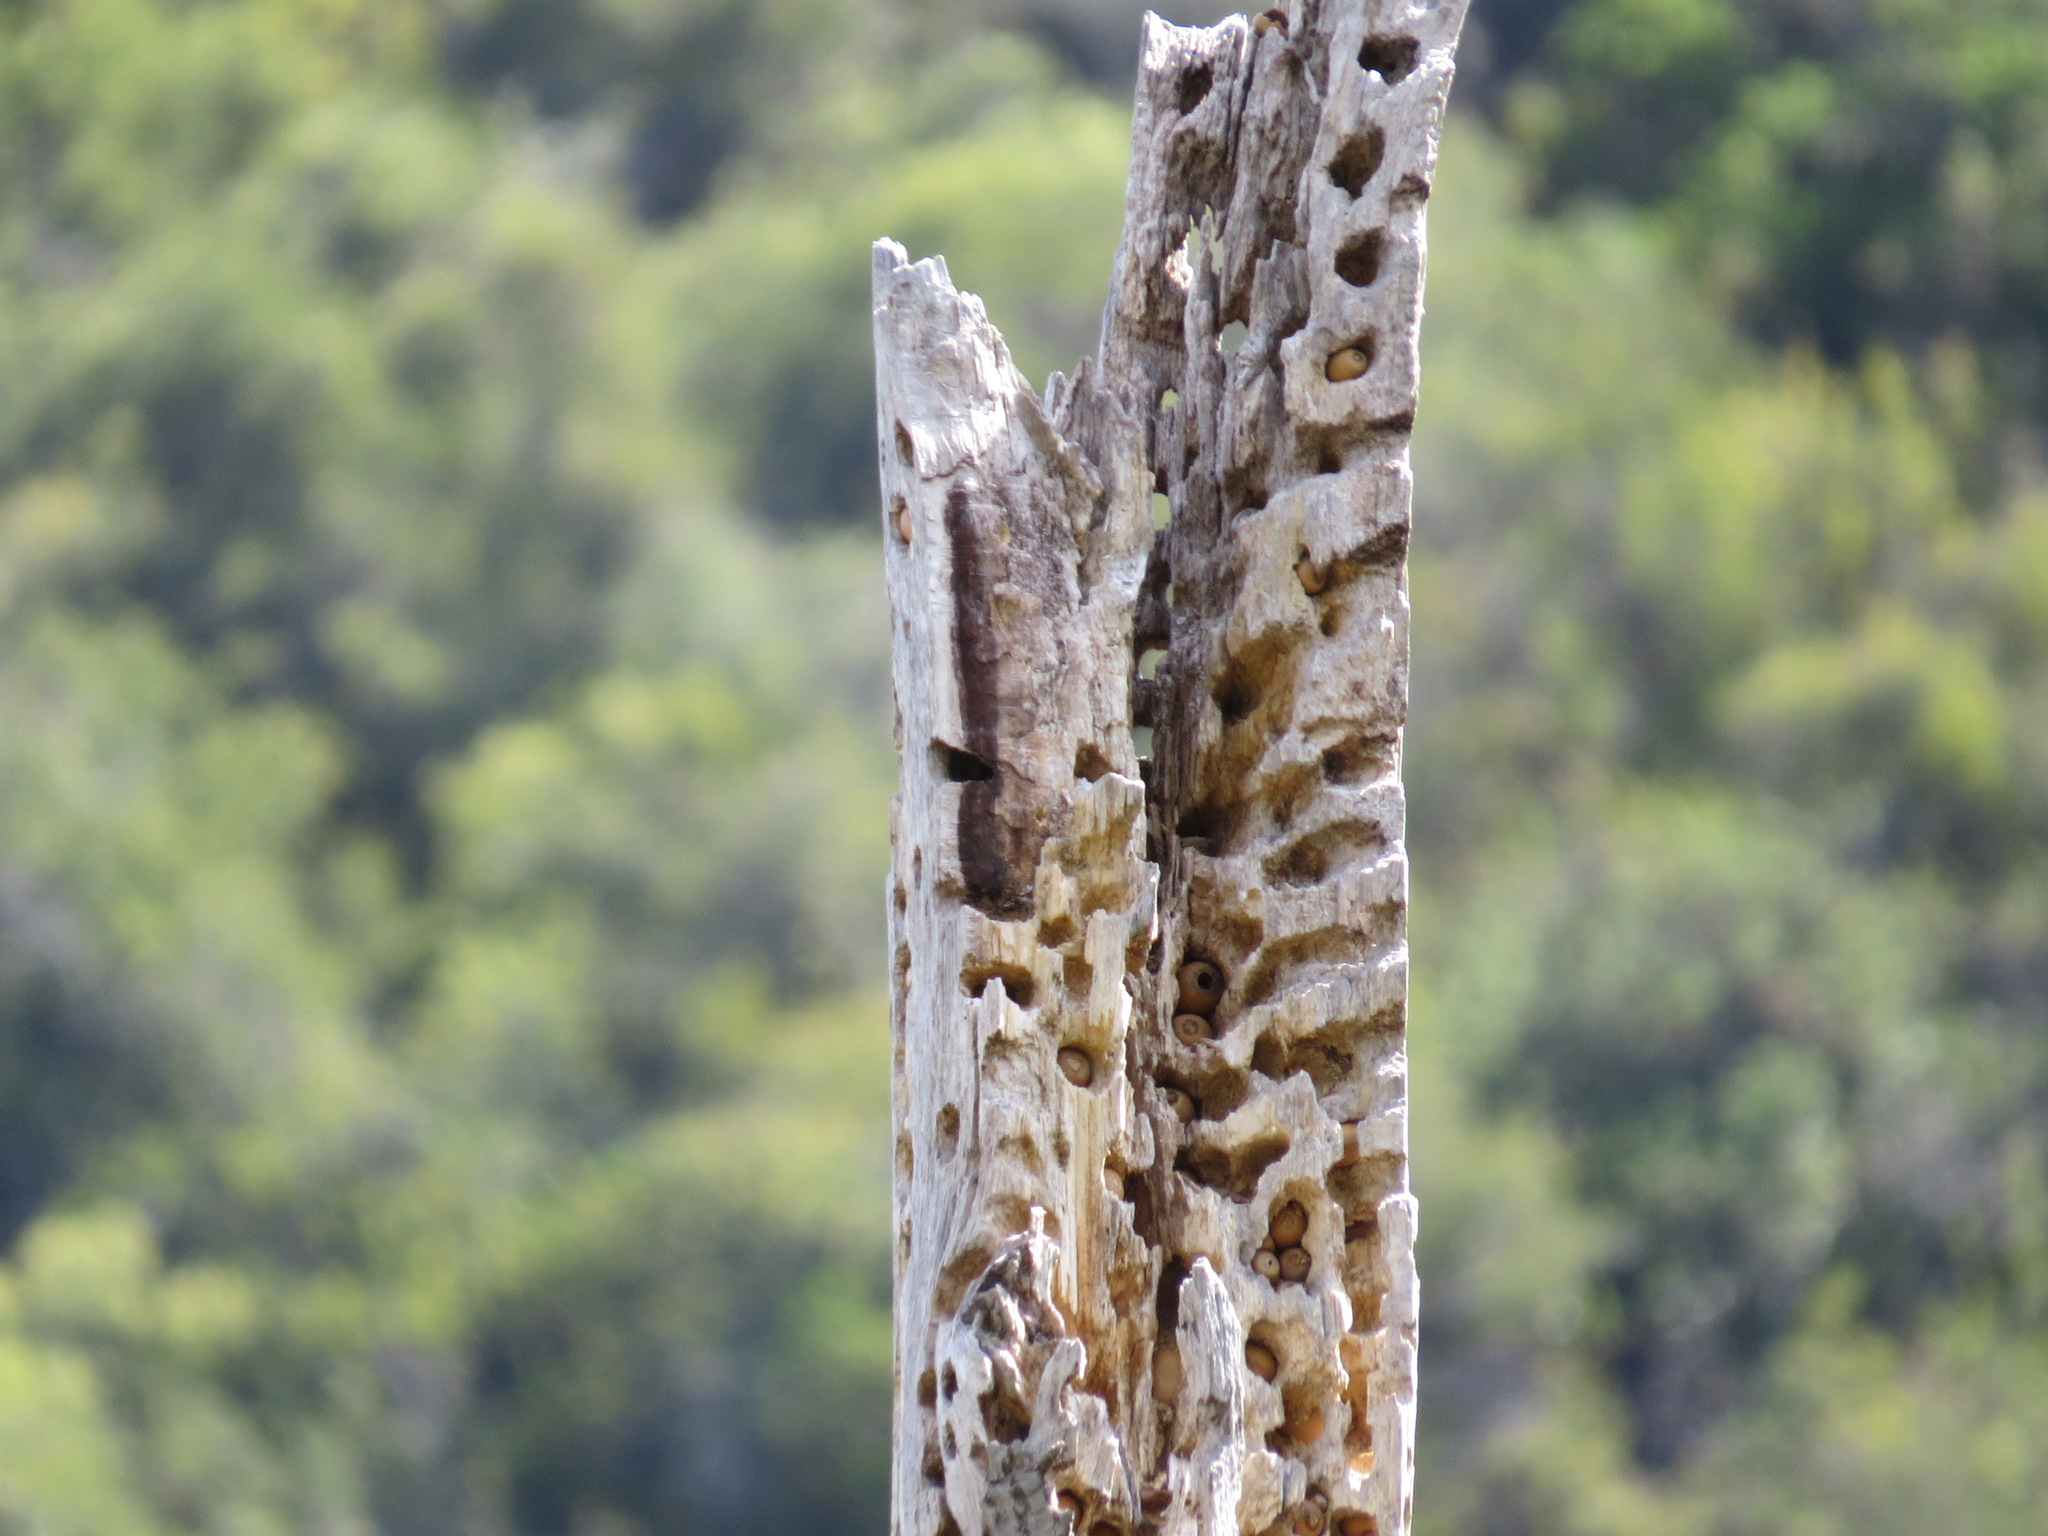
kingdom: Animalia
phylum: Chordata
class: Aves
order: Piciformes
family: Picidae
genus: Melanerpes
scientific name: Melanerpes formicivorus
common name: Acorn woodpecker
